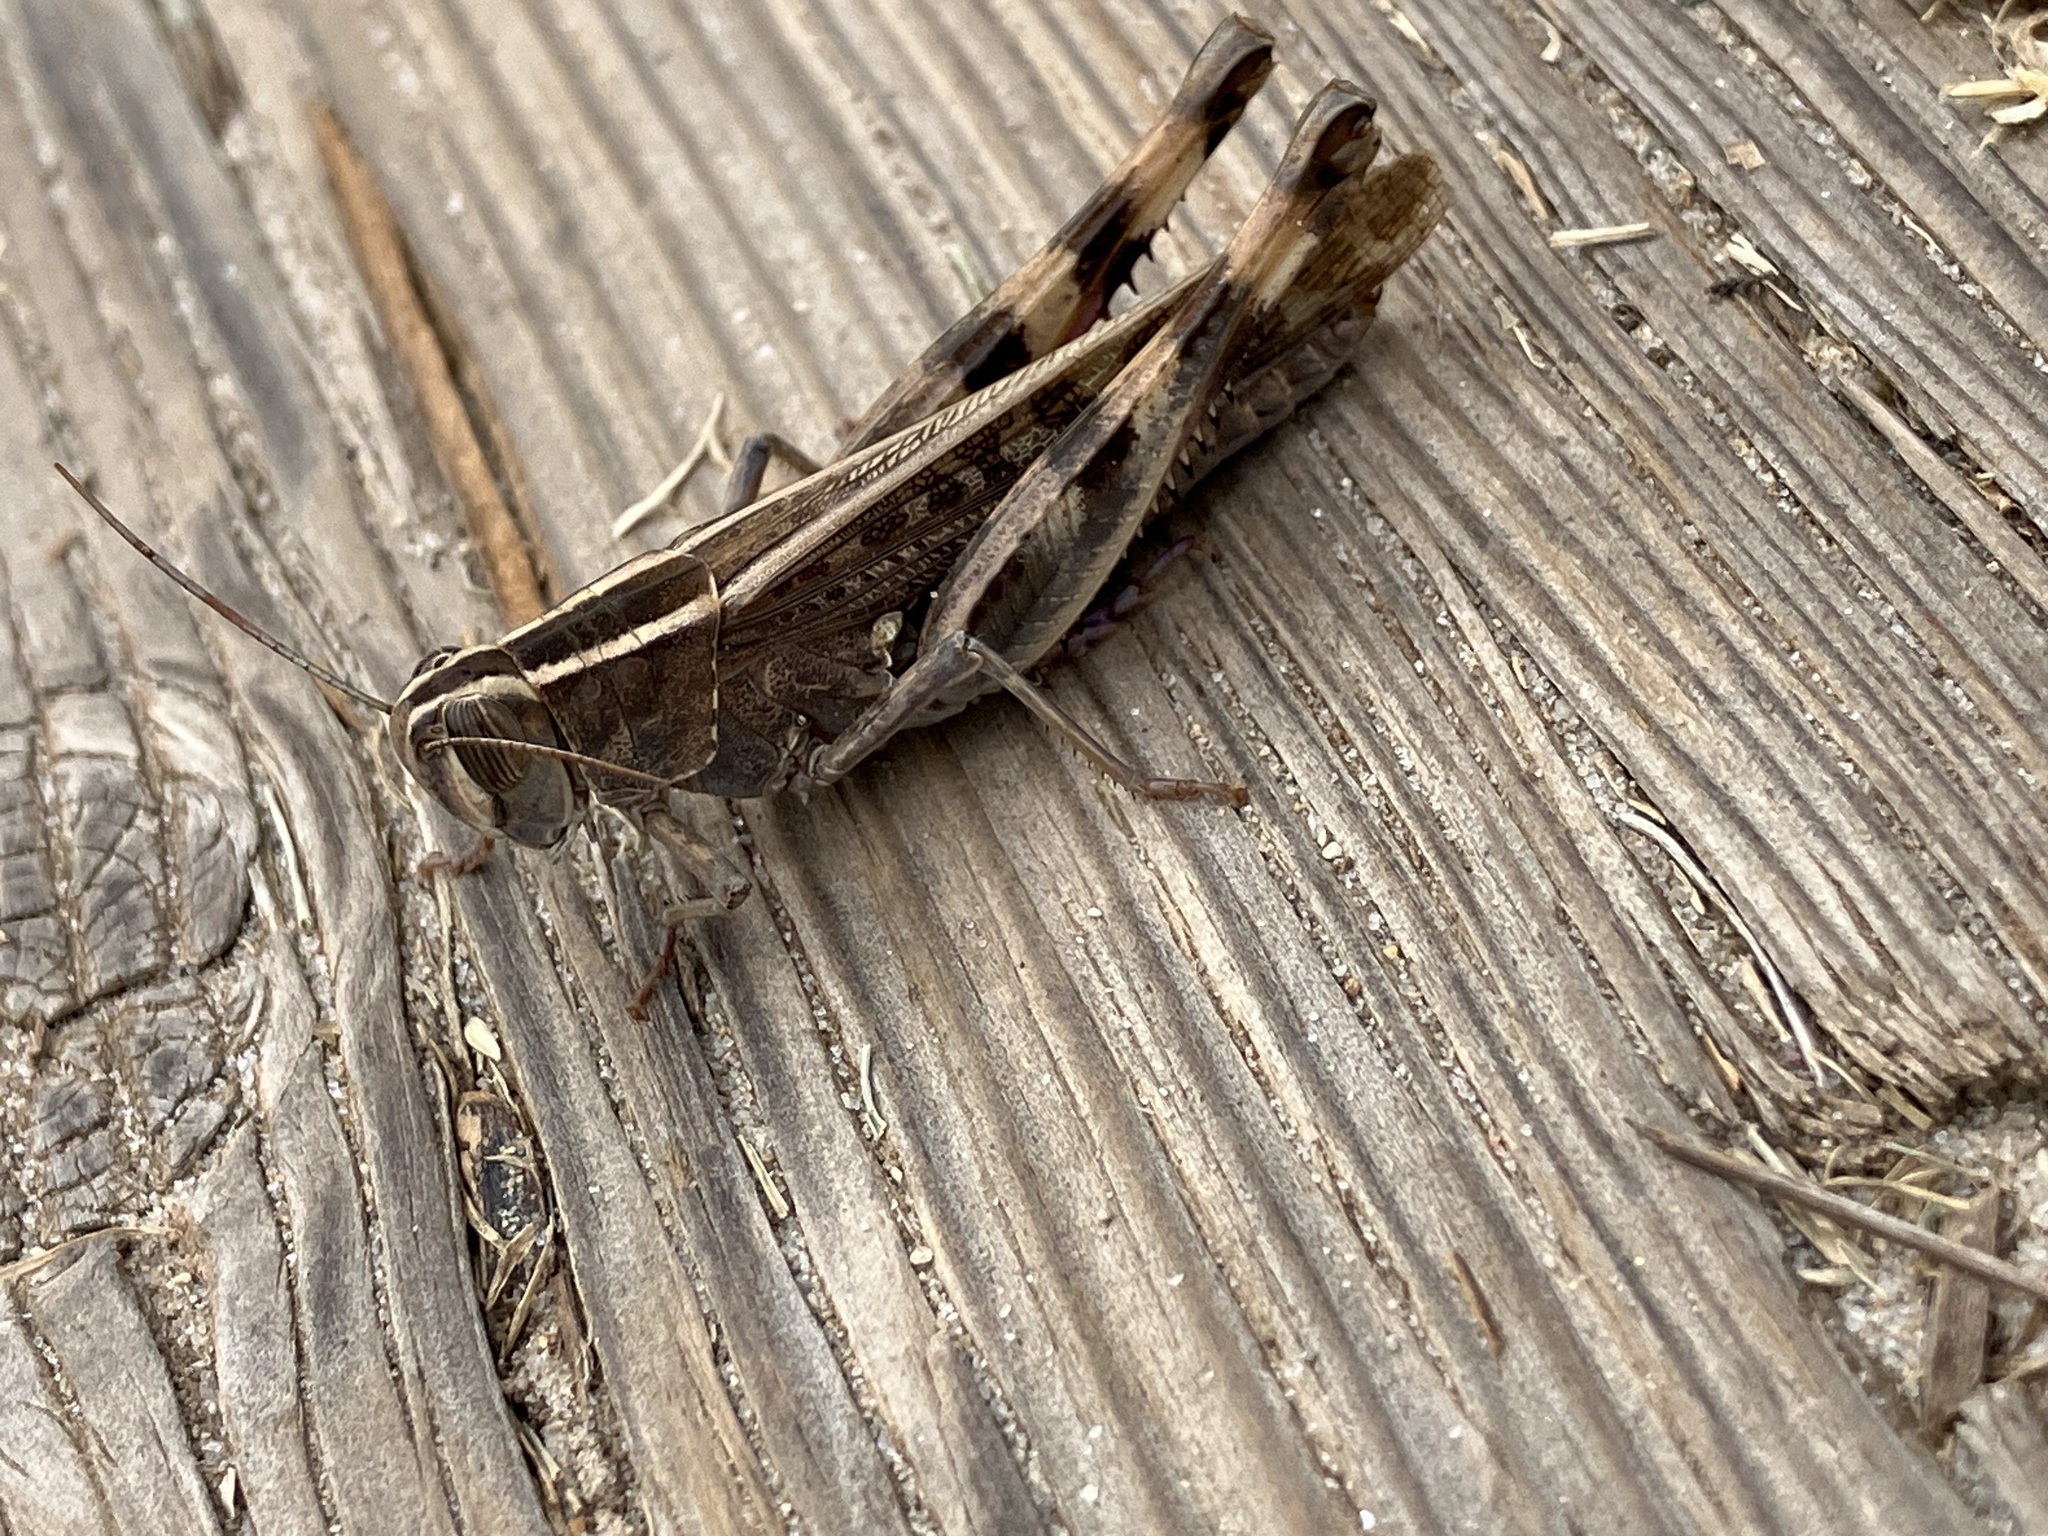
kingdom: Animalia
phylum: Arthropoda
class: Insecta
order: Orthoptera
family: Acrididae
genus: Heteracris
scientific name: Heteracris littoralis
